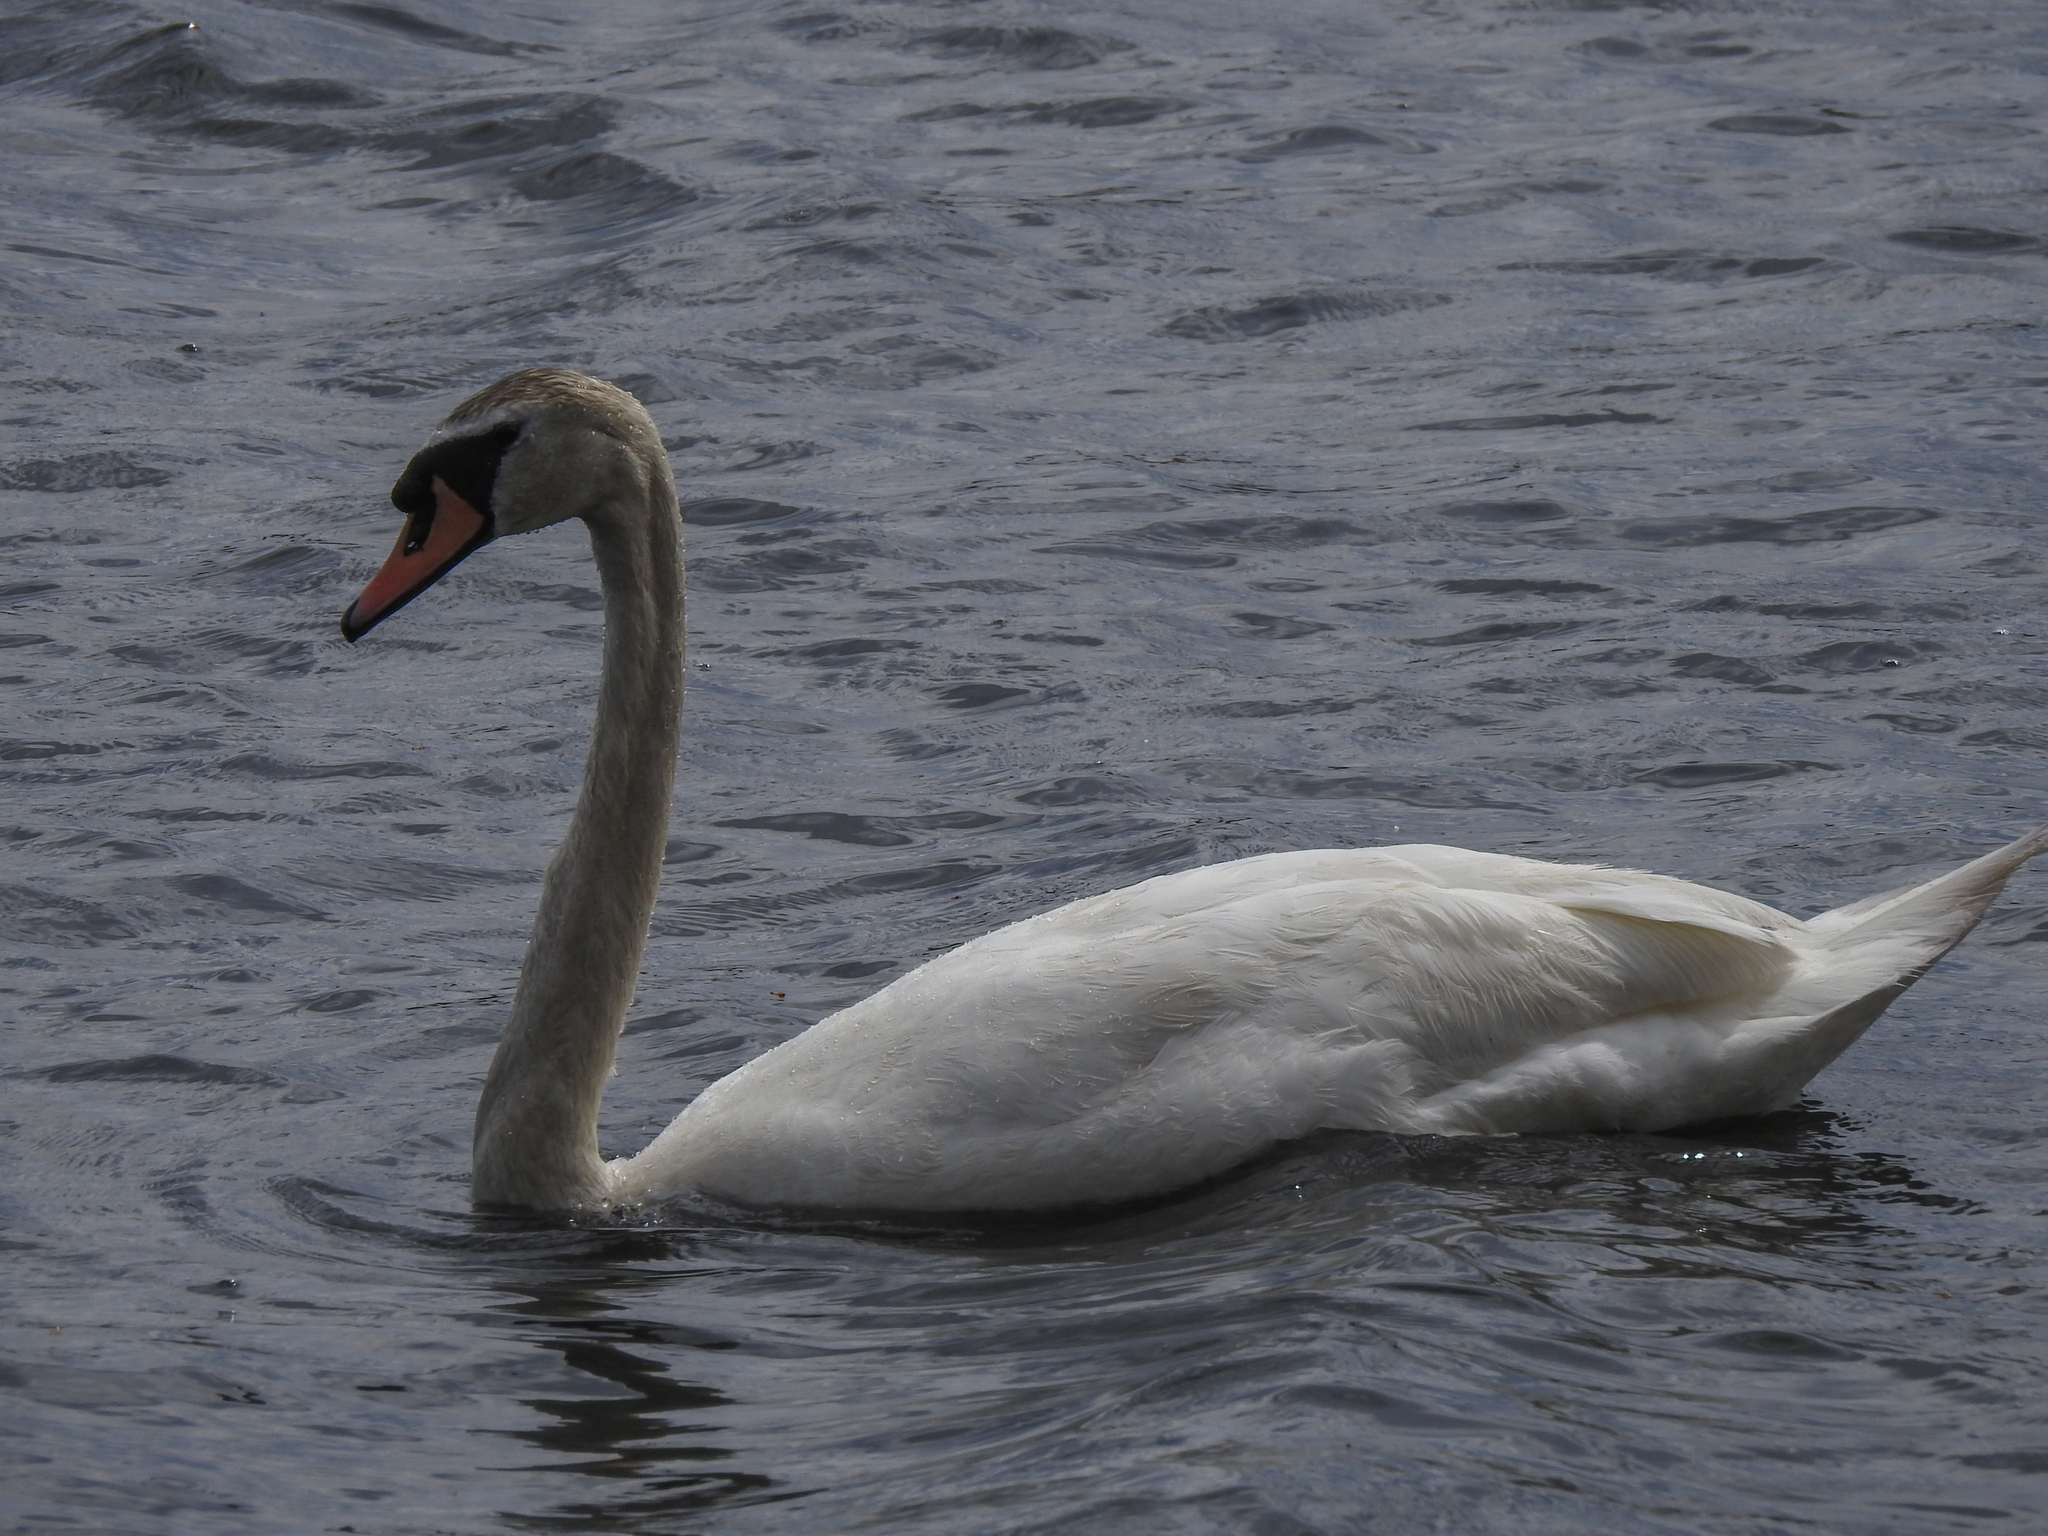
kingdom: Animalia
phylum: Chordata
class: Aves
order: Anseriformes
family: Anatidae
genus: Cygnus
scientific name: Cygnus olor
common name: Mute swan
